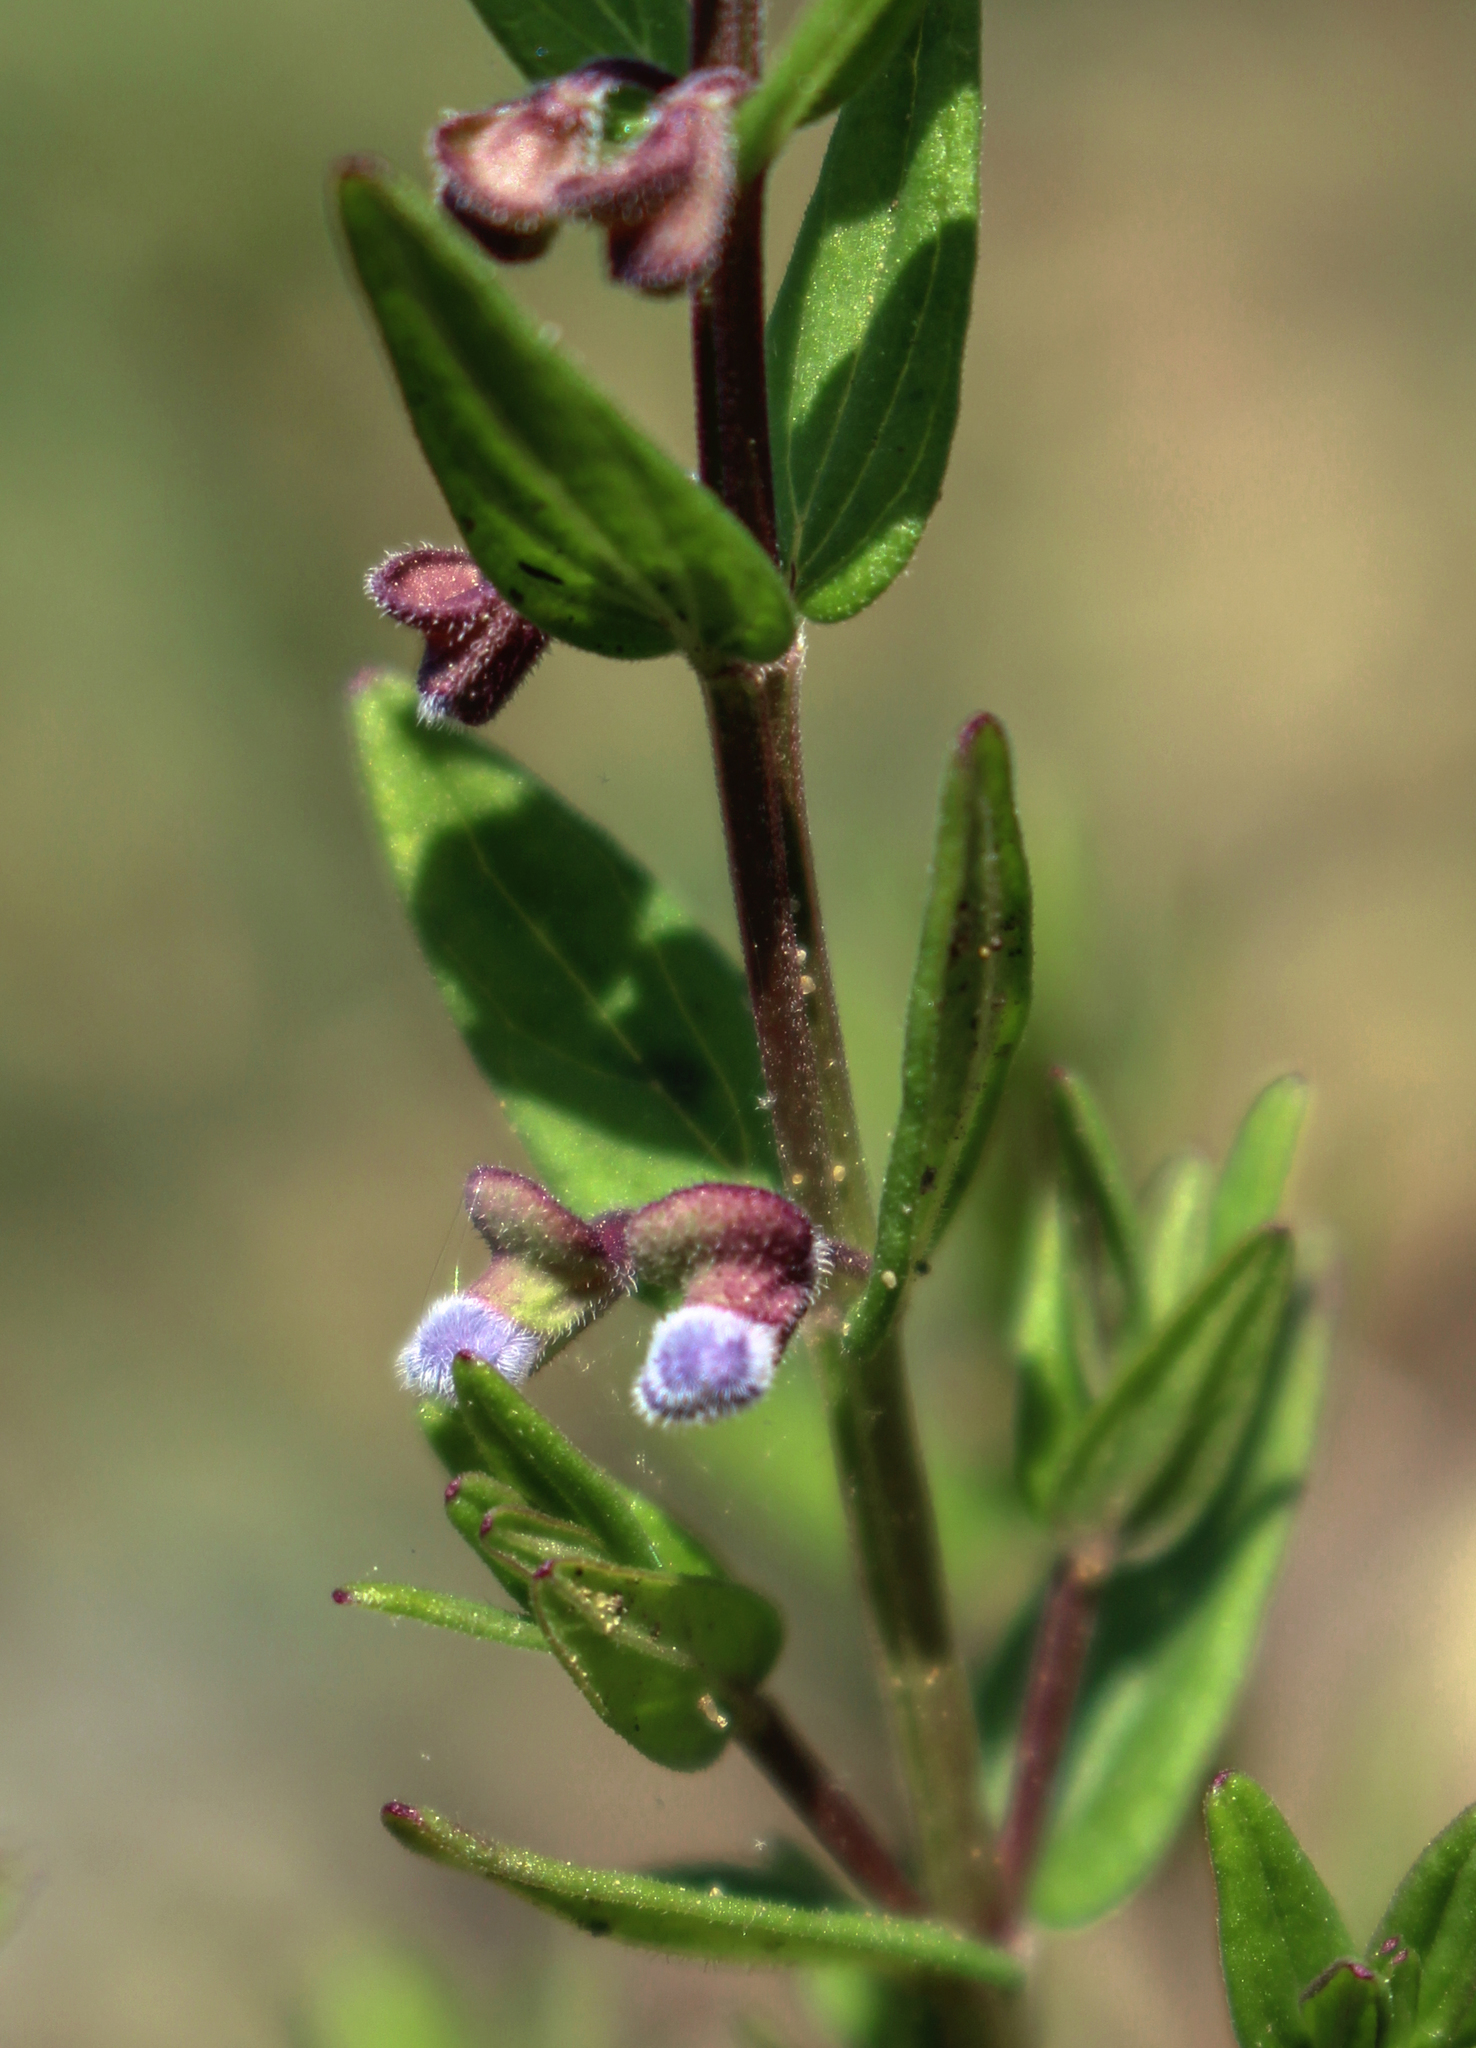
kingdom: Plantae
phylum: Tracheophyta
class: Magnoliopsida
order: Lamiales
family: Lamiaceae
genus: Scutellaria
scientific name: Scutellaria parvula
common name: Little scullcap
